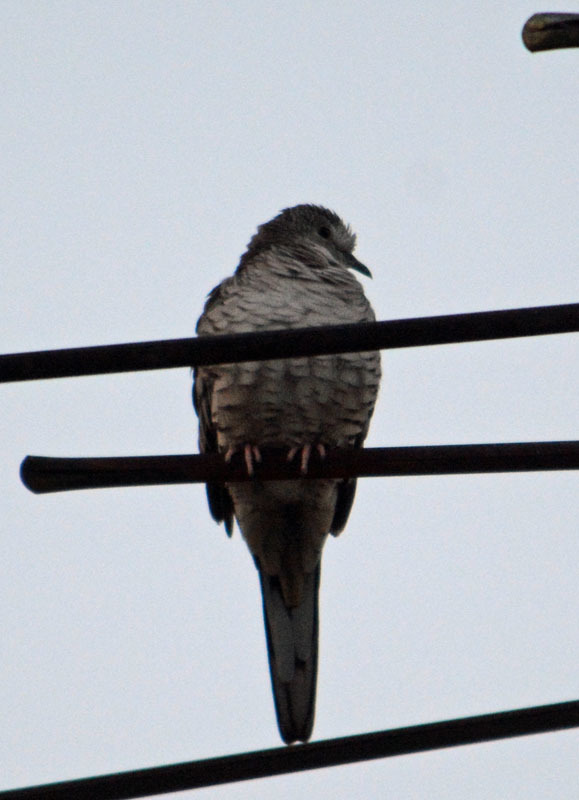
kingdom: Animalia
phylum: Chordata
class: Aves
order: Columbiformes
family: Columbidae
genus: Columbina
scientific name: Columbina inca
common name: Inca dove
